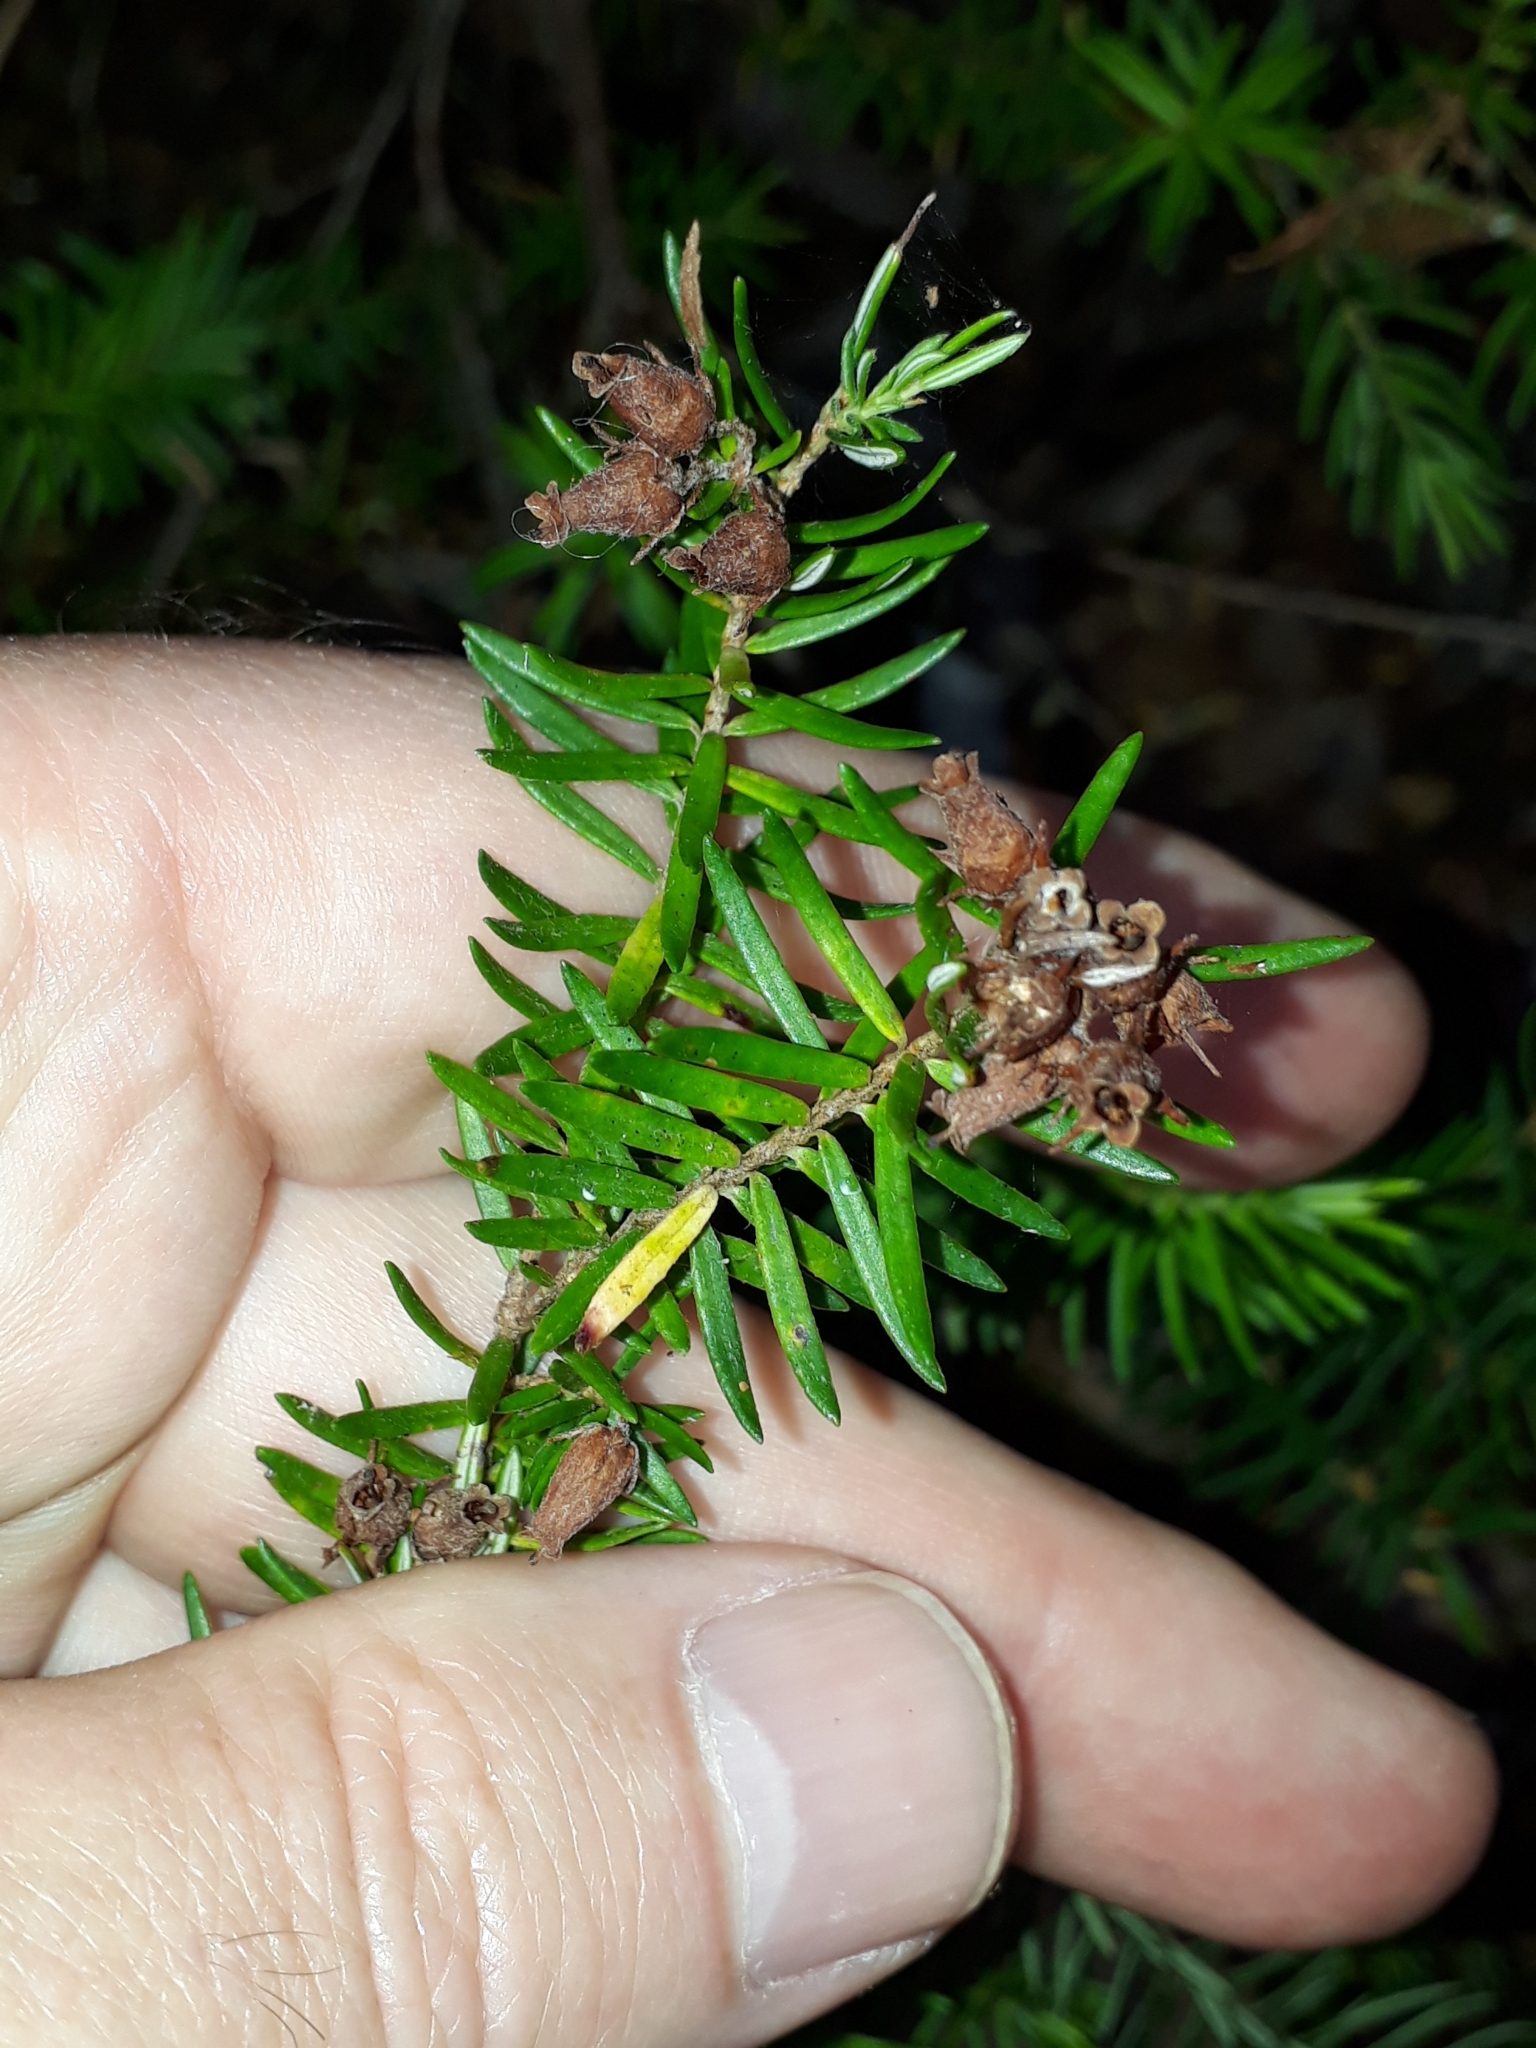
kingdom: Plantae
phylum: Tracheophyta
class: Magnoliopsida
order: Ericales
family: Ericaceae
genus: Erica
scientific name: Erica caffra
